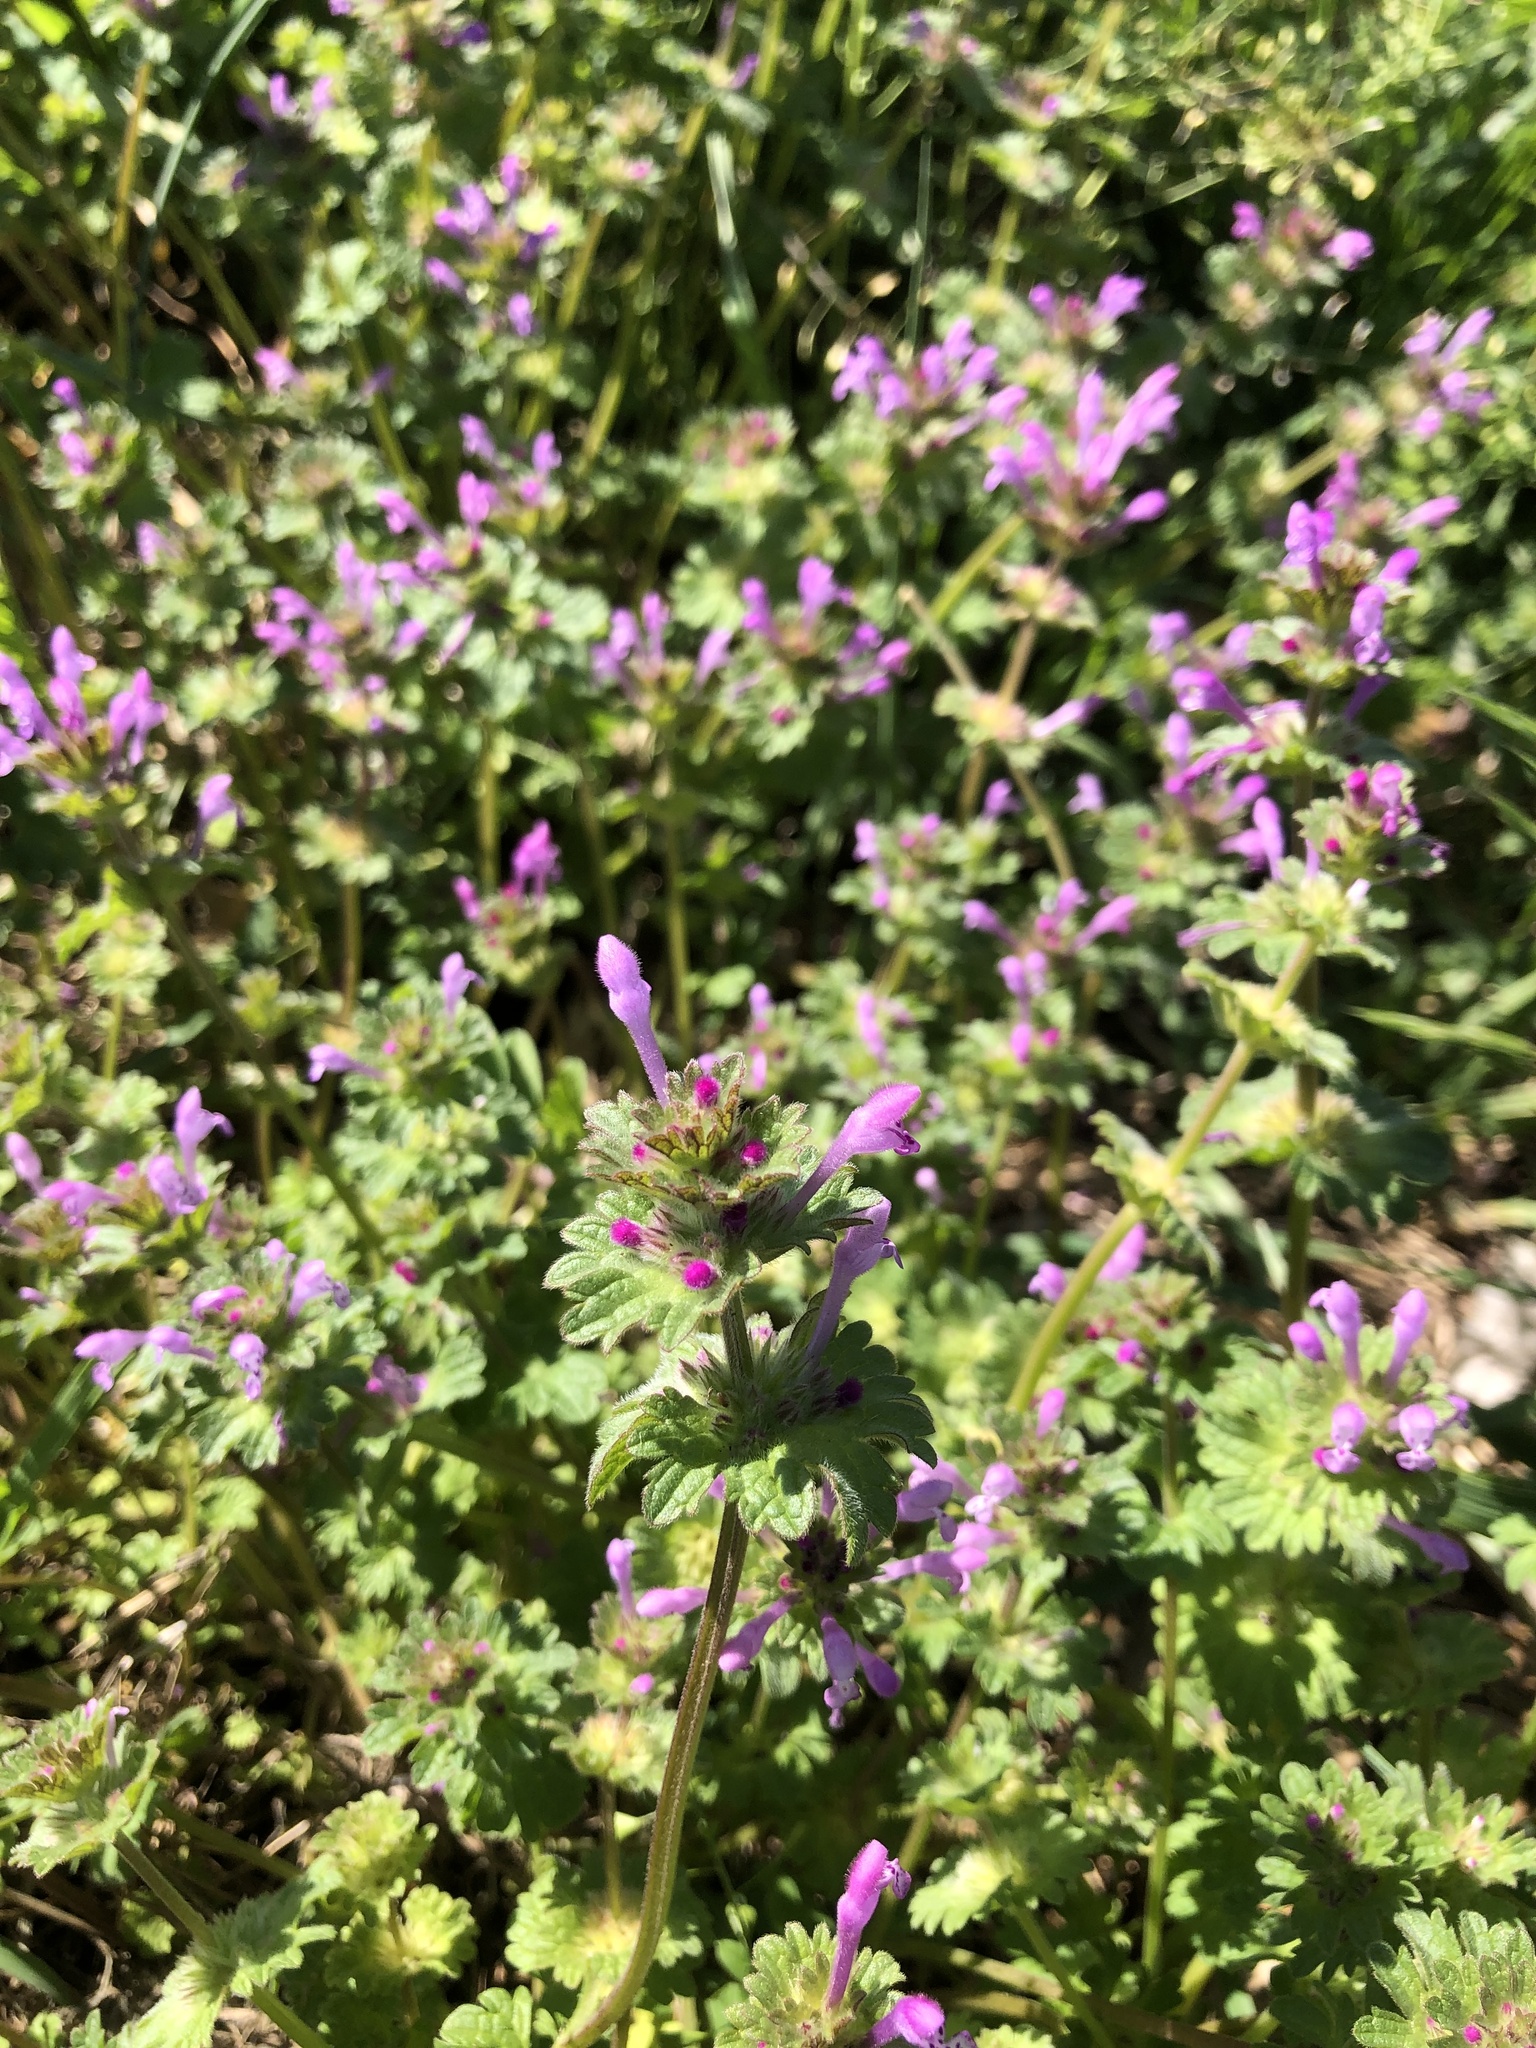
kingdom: Plantae
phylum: Tracheophyta
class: Magnoliopsida
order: Lamiales
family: Lamiaceae
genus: Lamium
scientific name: Lamium amplexicaule
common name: Henbit dead-nettle
